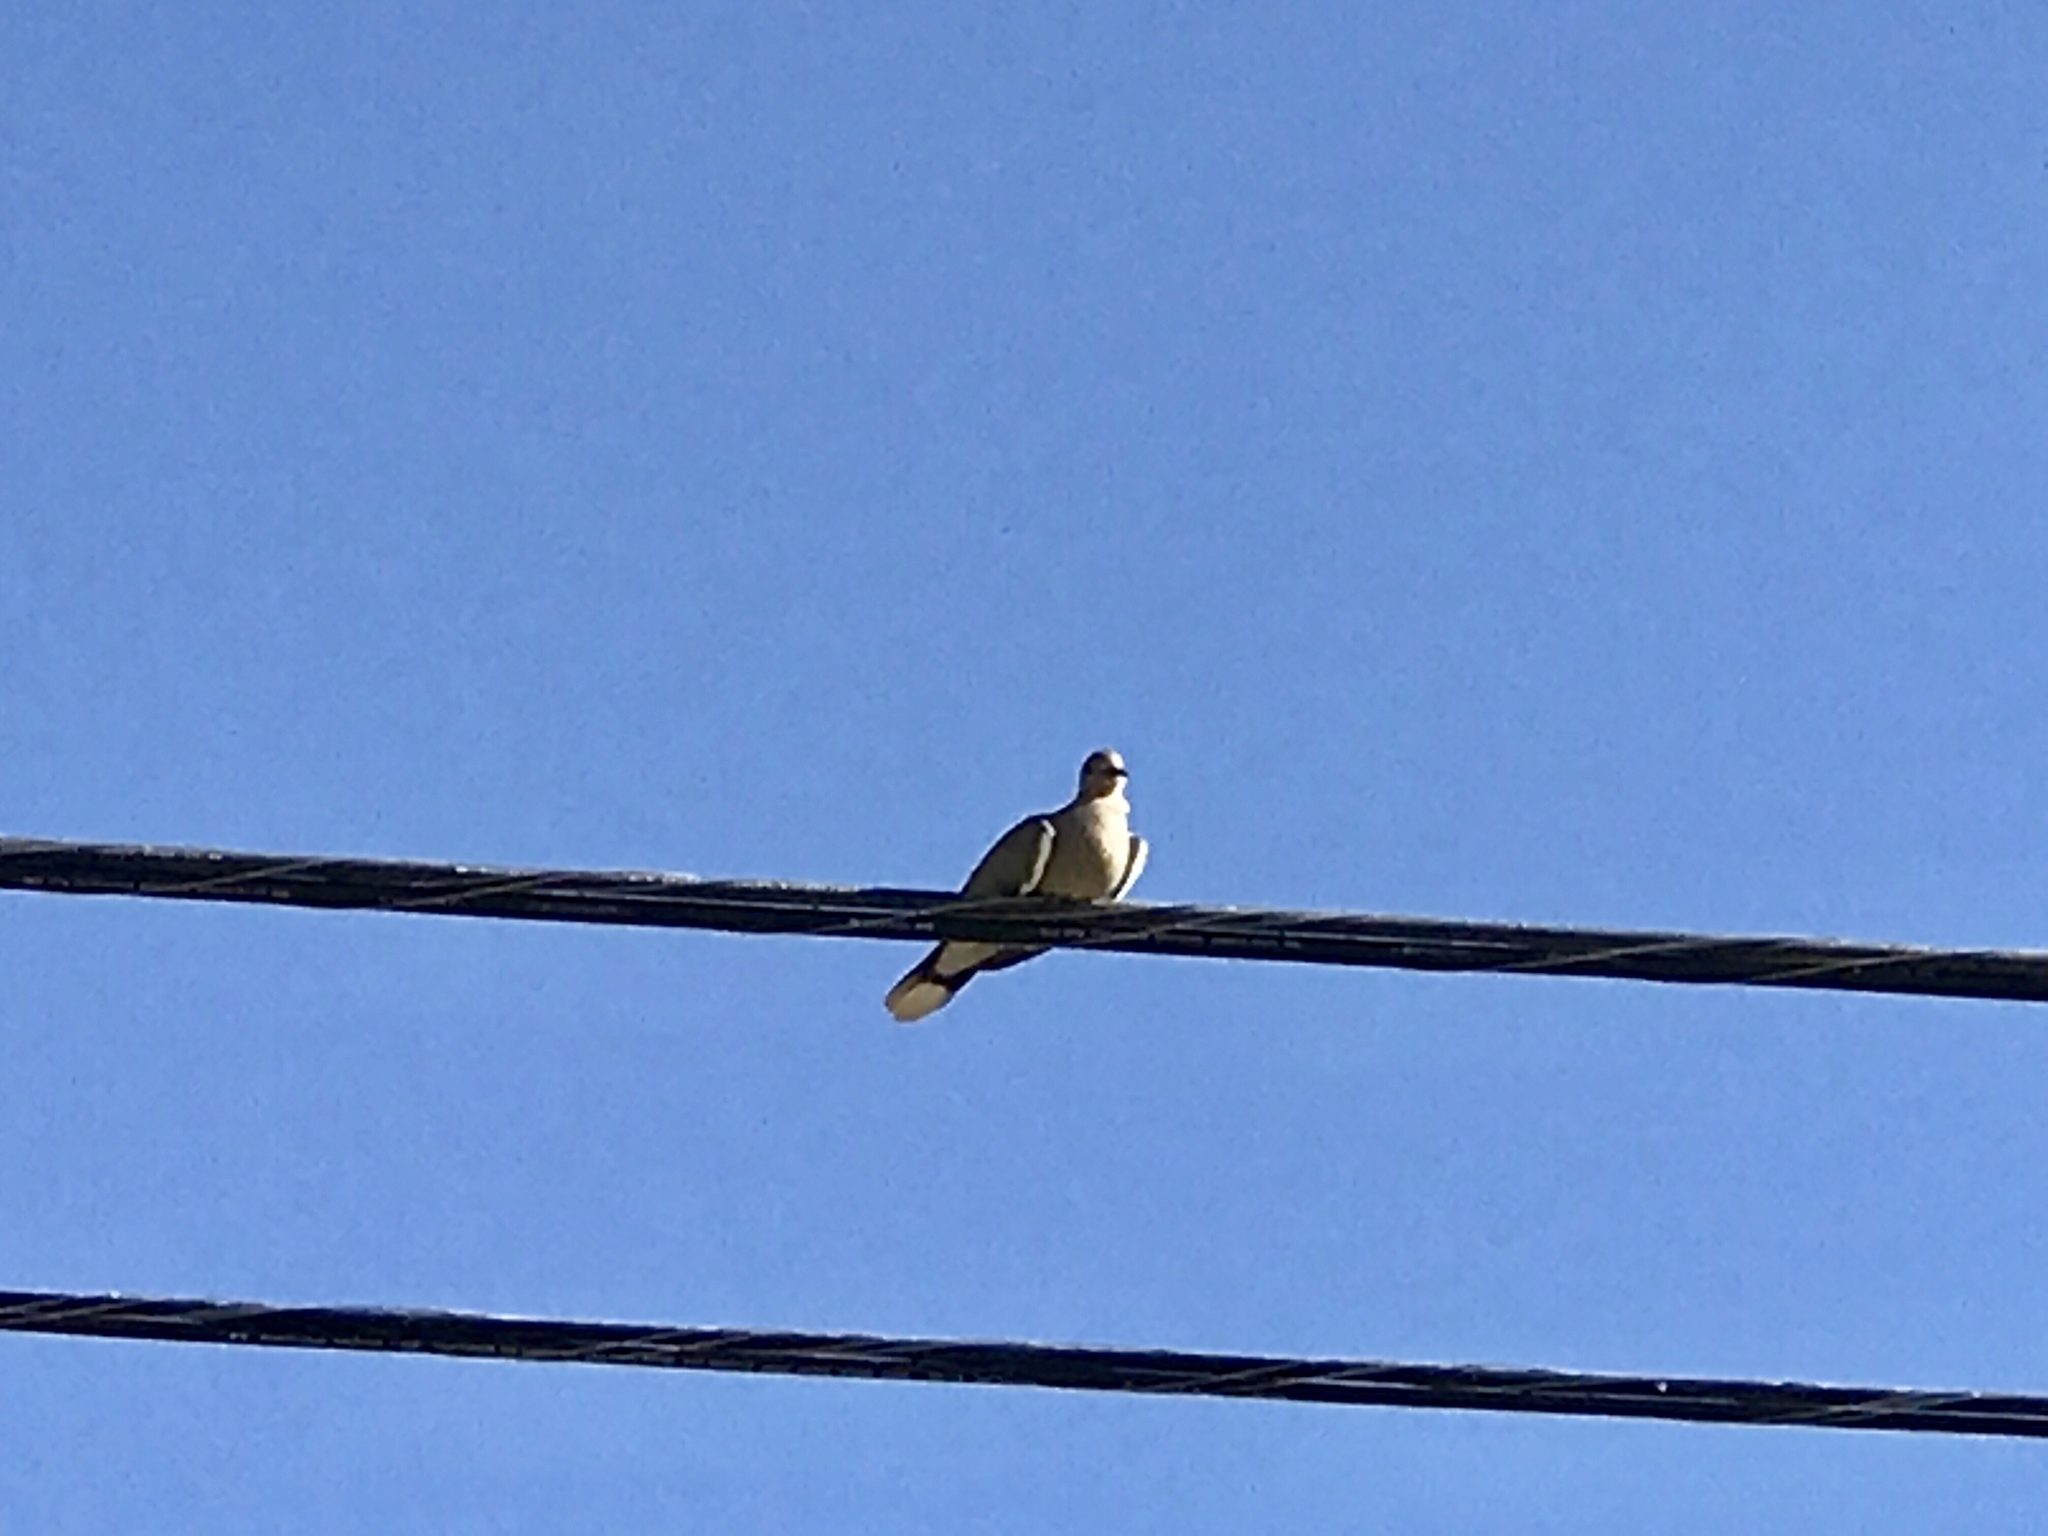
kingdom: Animalia
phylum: Chordata
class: Aves
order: Columbiformes
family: Columbidae
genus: Zenaida
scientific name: Zenaida asiatica
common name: White-winged dove
